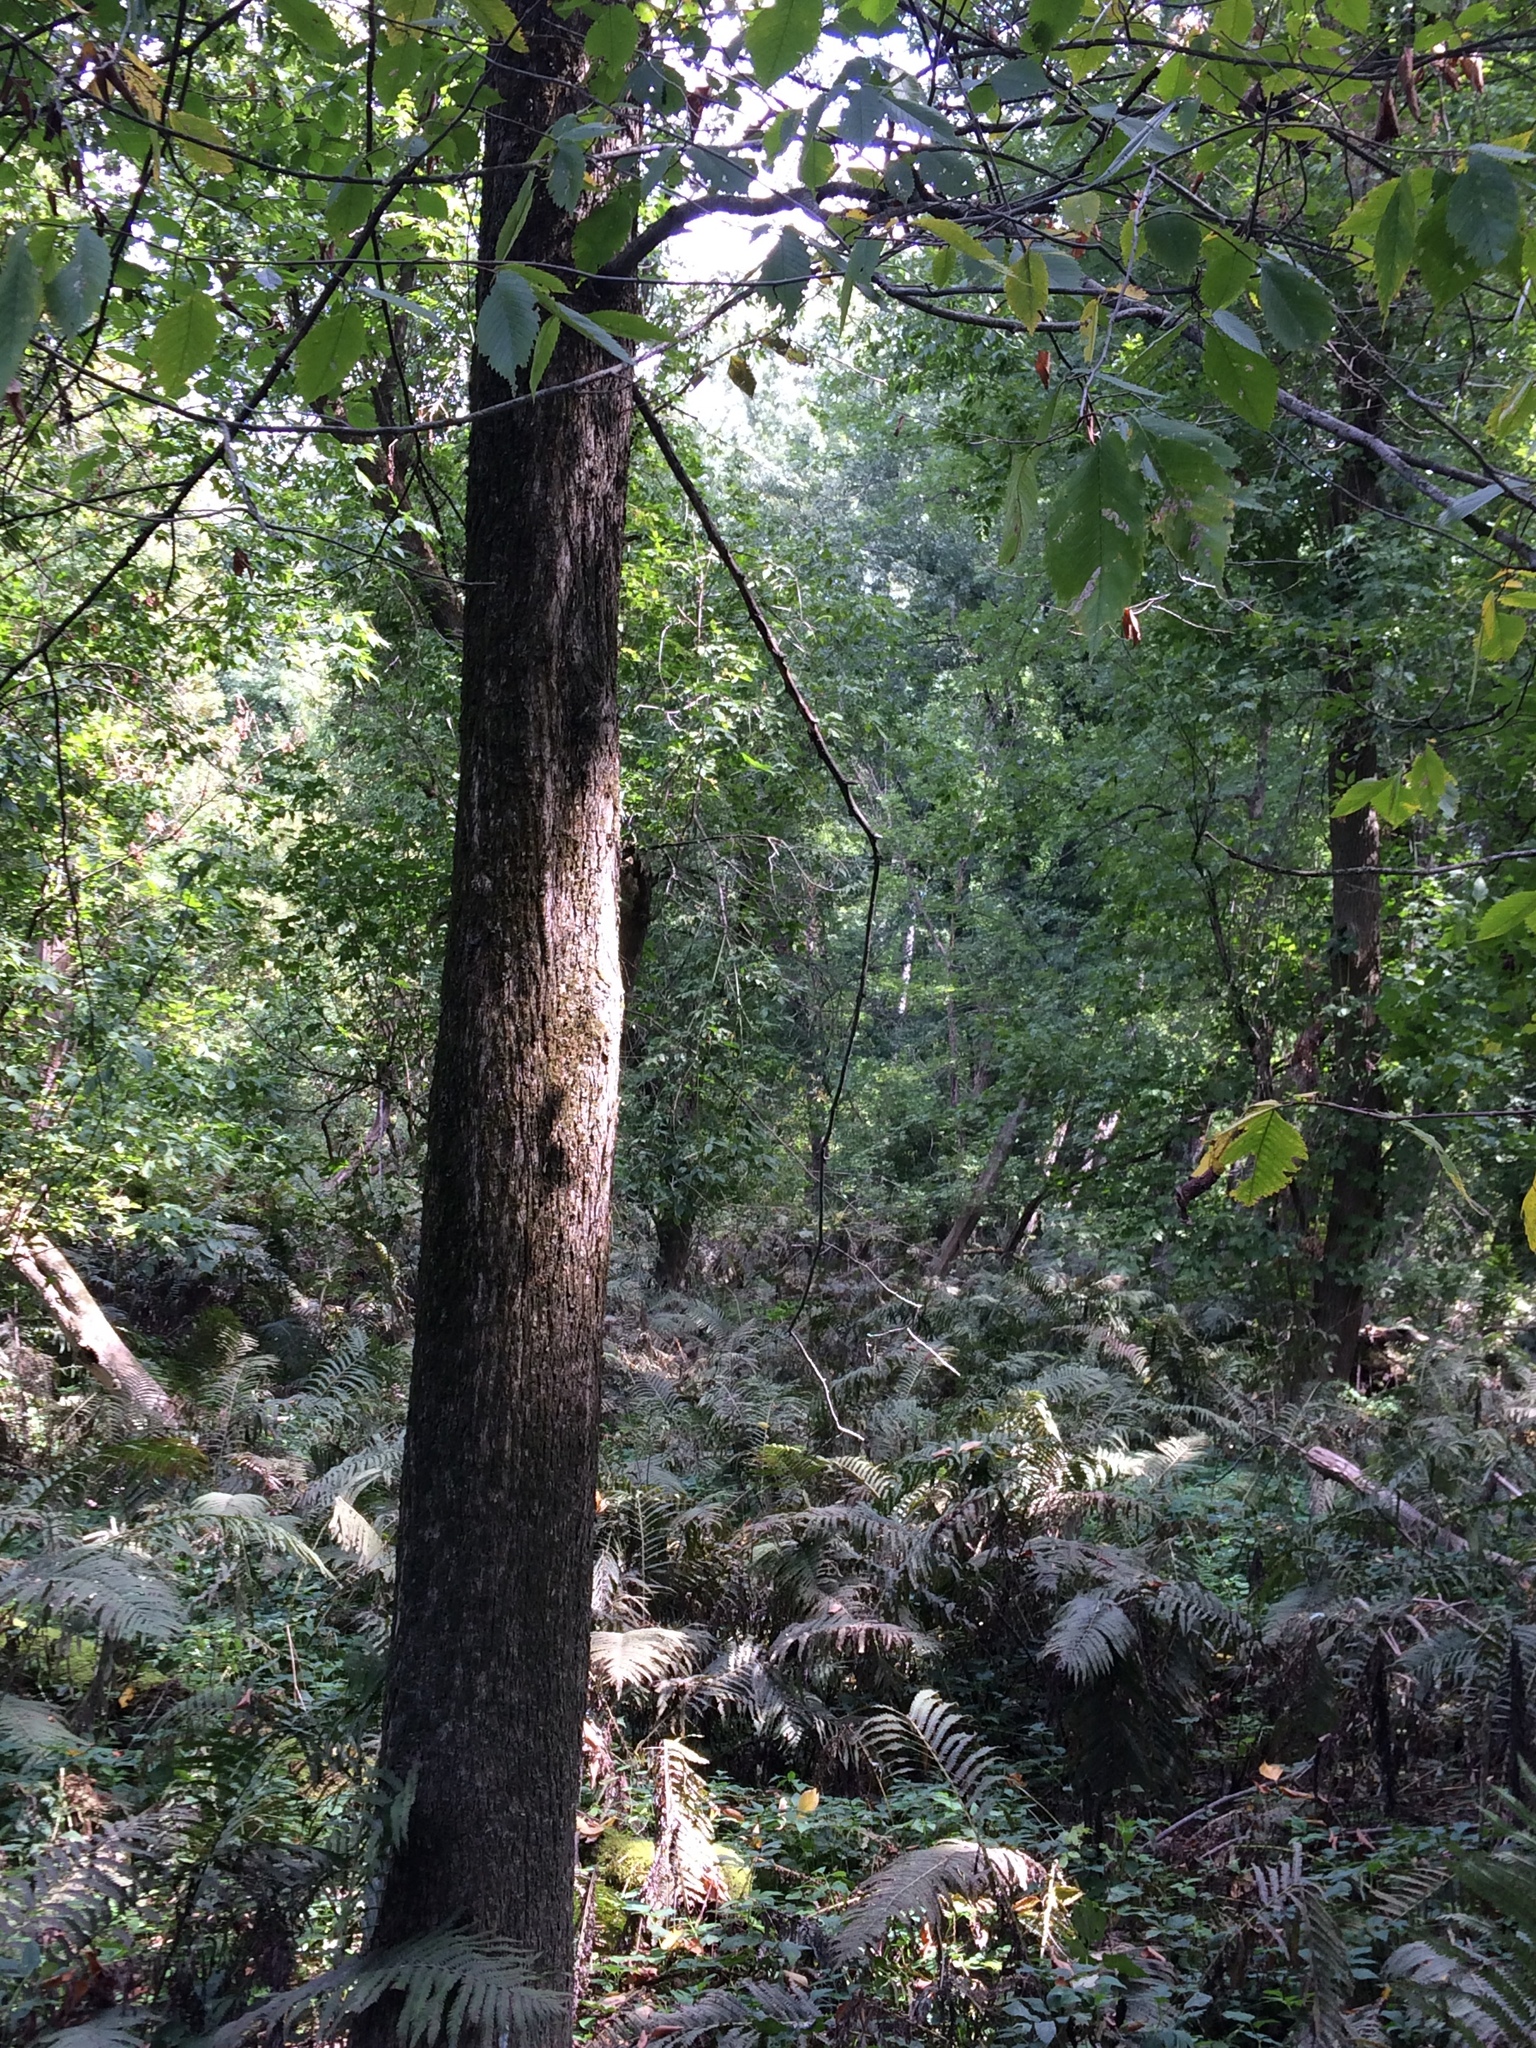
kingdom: Plantae
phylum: Tracheophyta
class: Magnoliopsida
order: Rosales
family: Ulmaceae
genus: Ulmus
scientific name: Ulmus americana
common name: American elm
